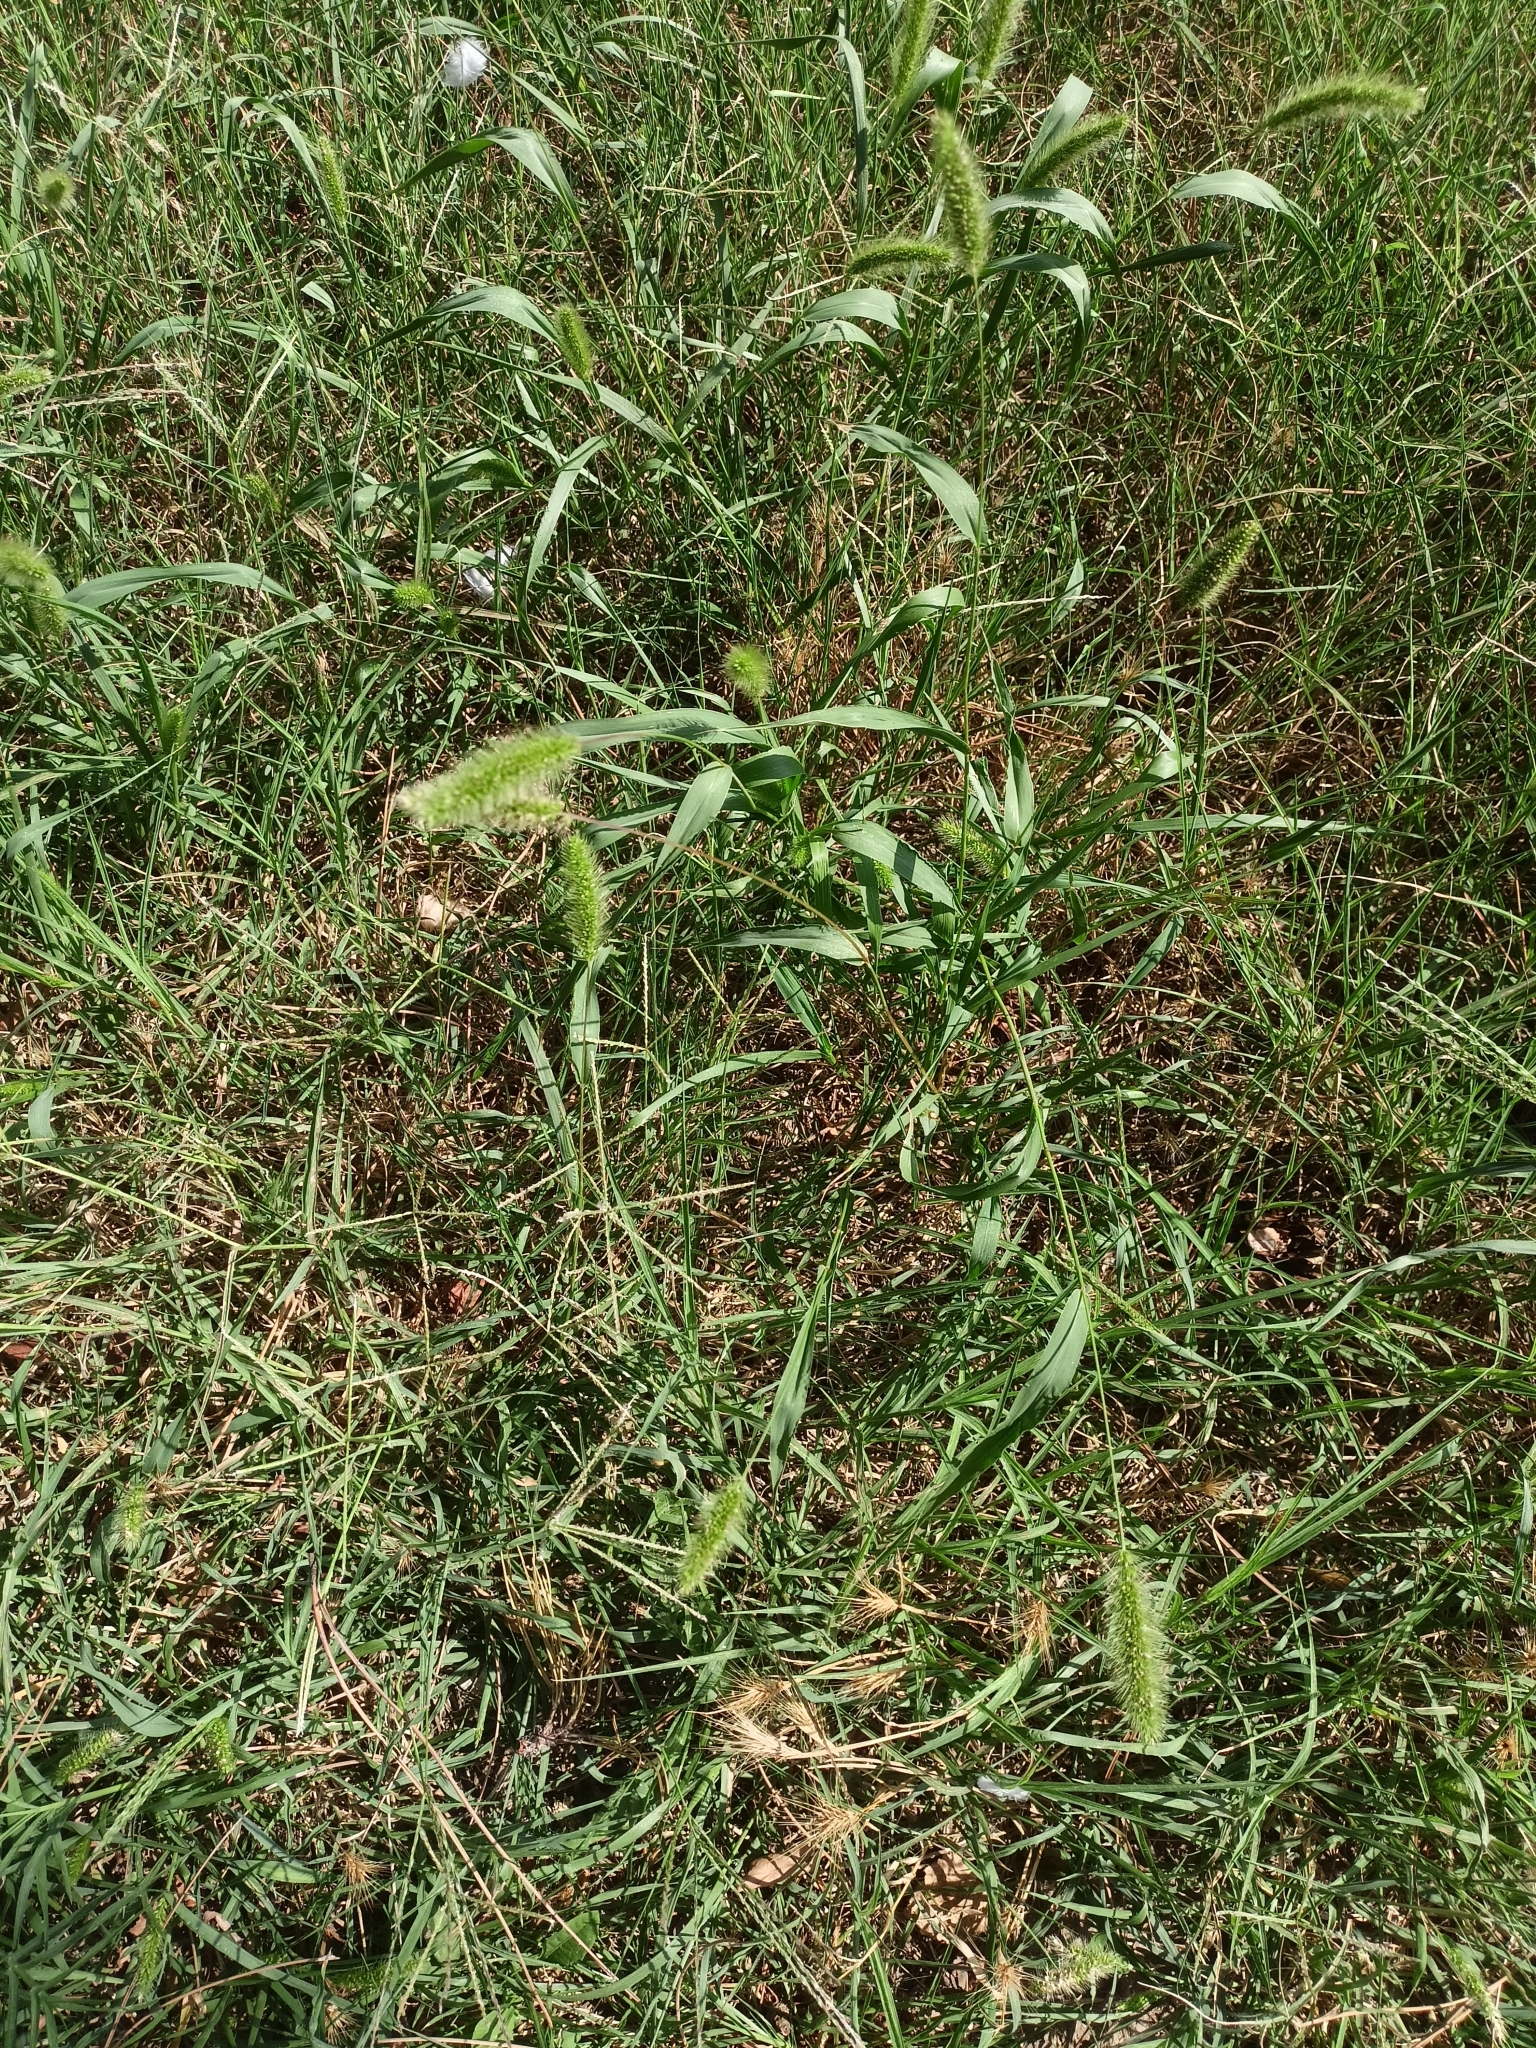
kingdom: Plantae
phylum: Tracheophyta
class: Liliopsida
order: Poales
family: Poaceae
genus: Setaria
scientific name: Setaria viridis
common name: Green bristlegrass
